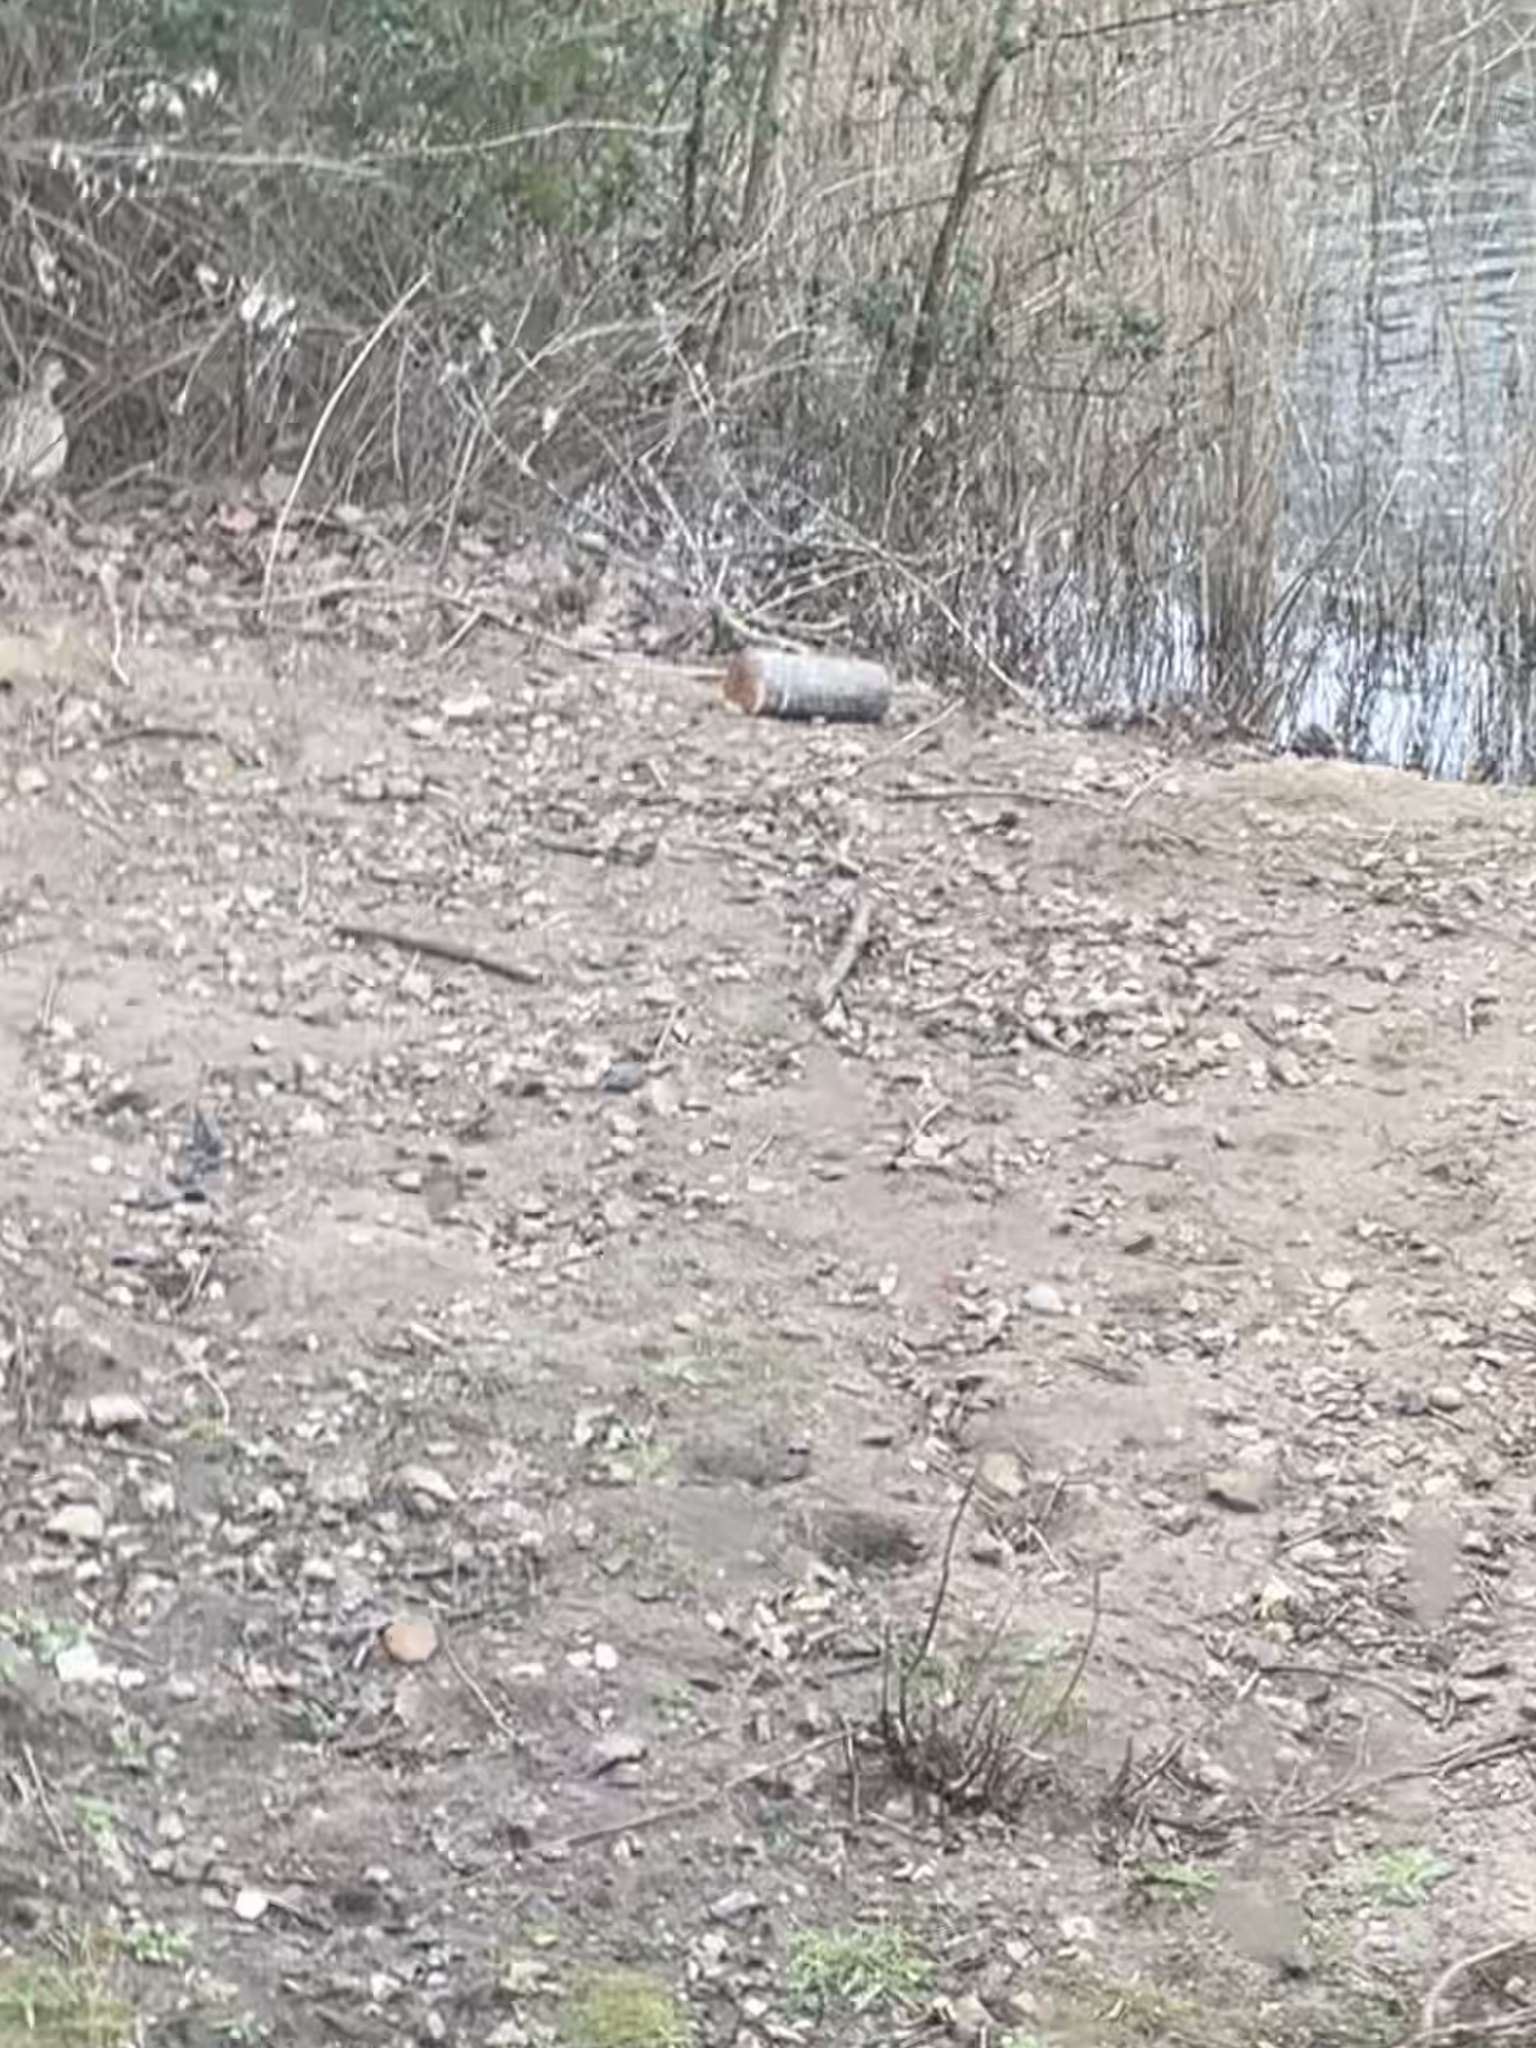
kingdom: Animalia
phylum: Chordata
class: Aves
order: Galliformes
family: Phasianidae
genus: Phasianus
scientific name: Phasianus colchicus
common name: Common pheasant
